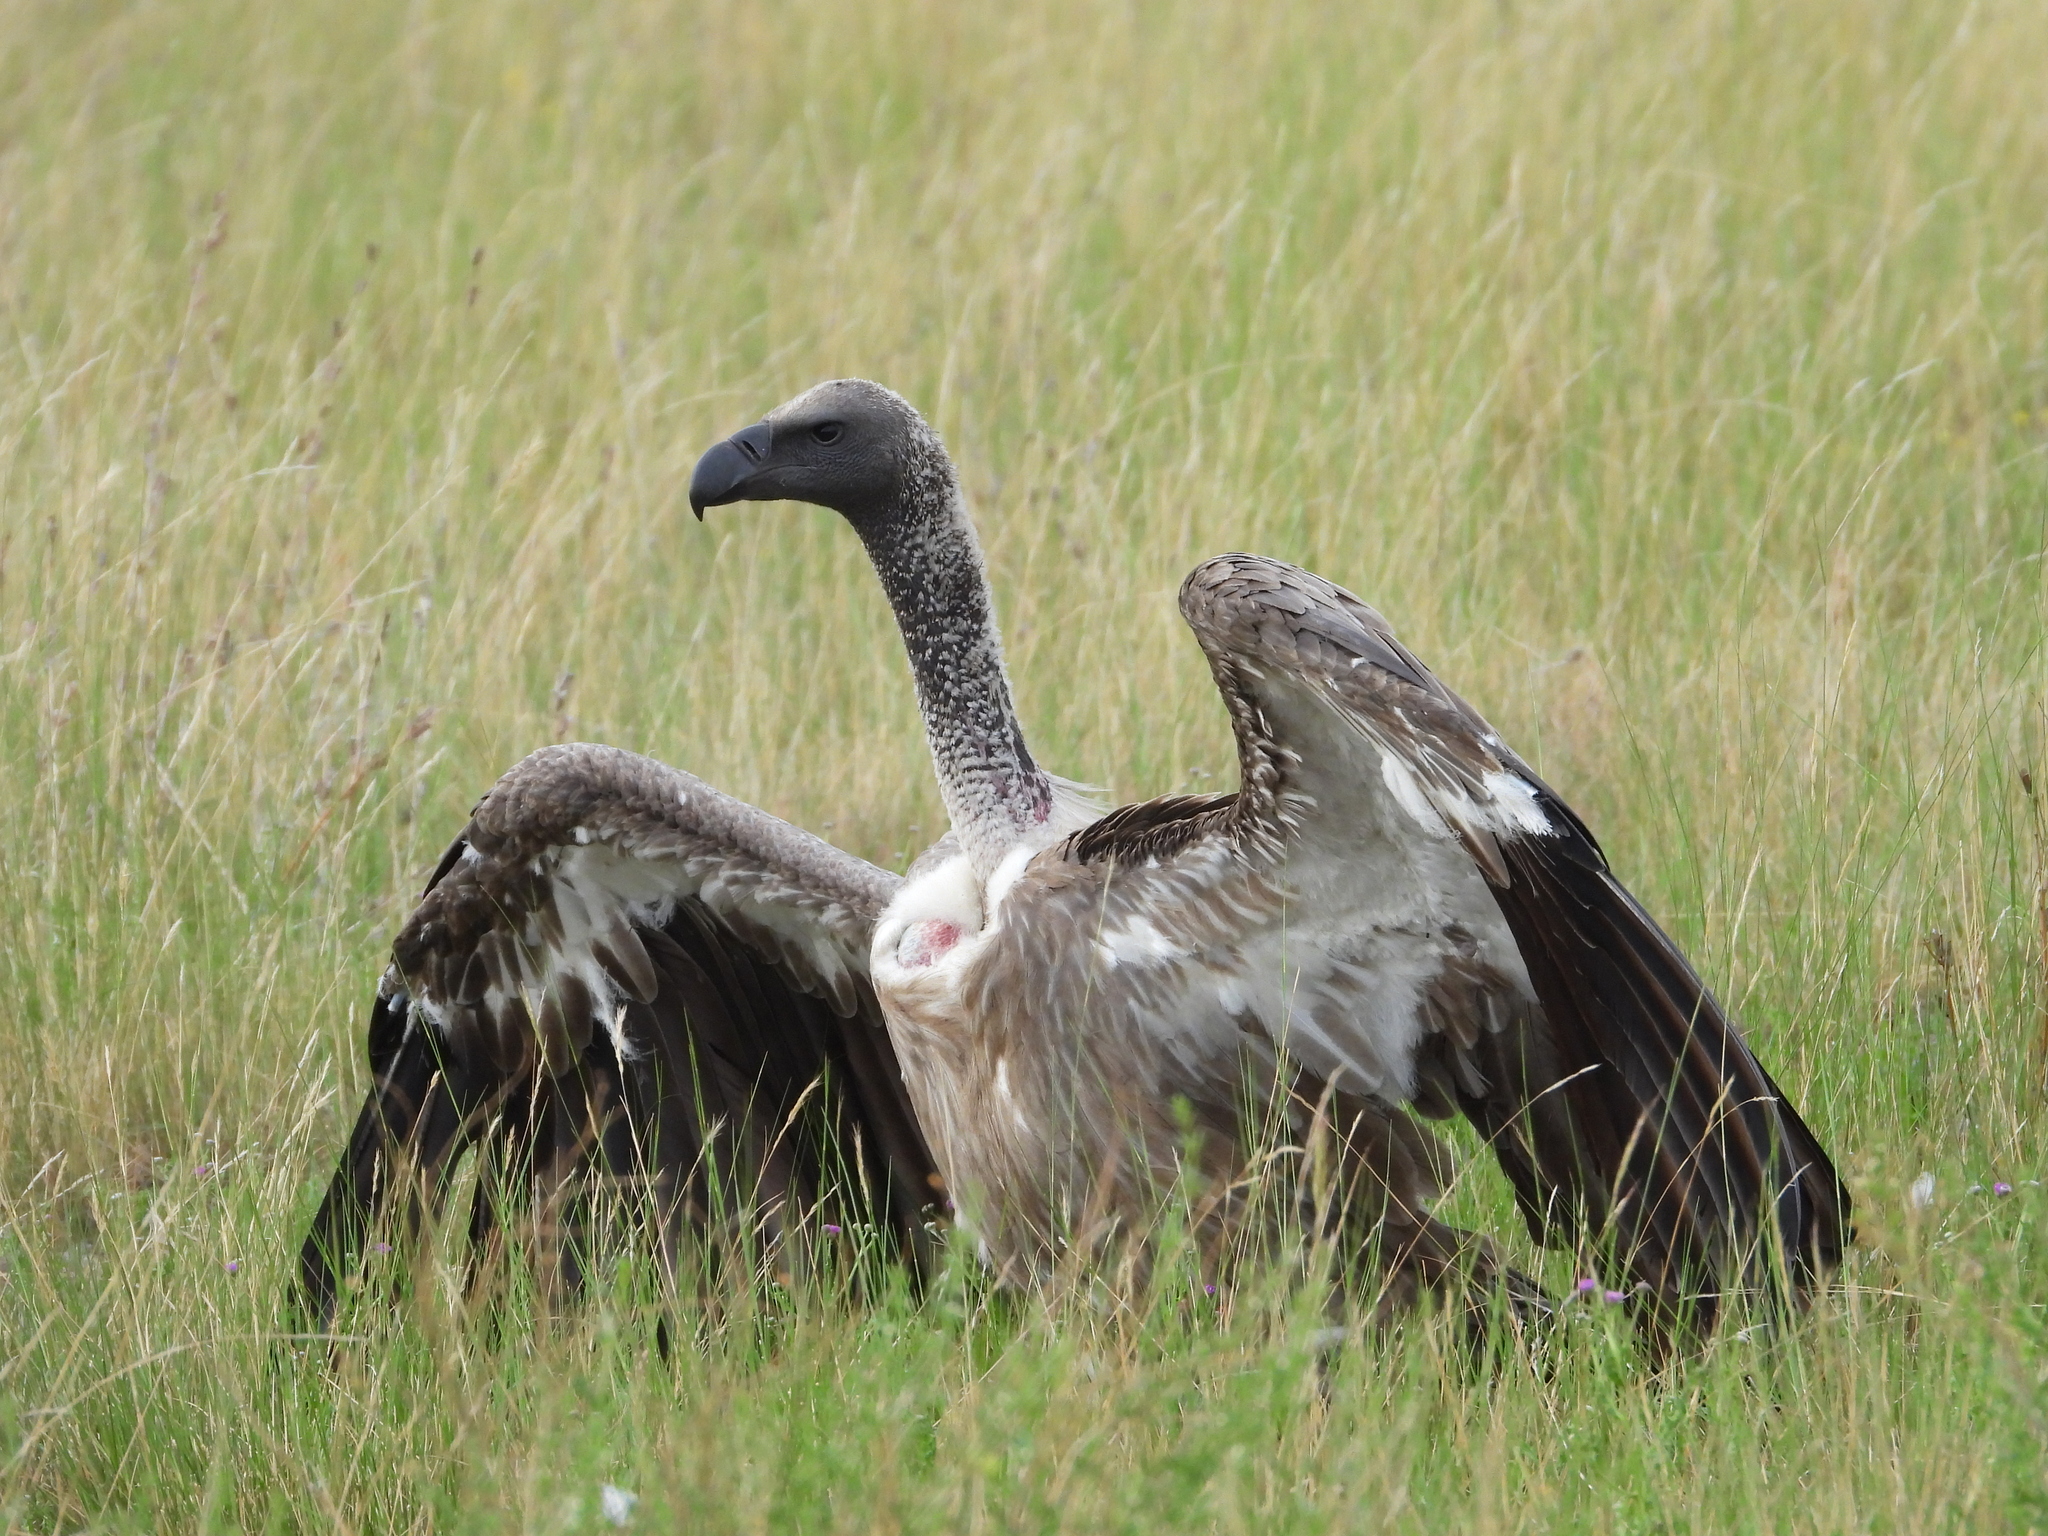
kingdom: Animalia
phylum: Chordata
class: Aves
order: Accipitriformes
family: Accipitridae
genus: Gyps
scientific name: Gyps africanus
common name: White-backed vulture
